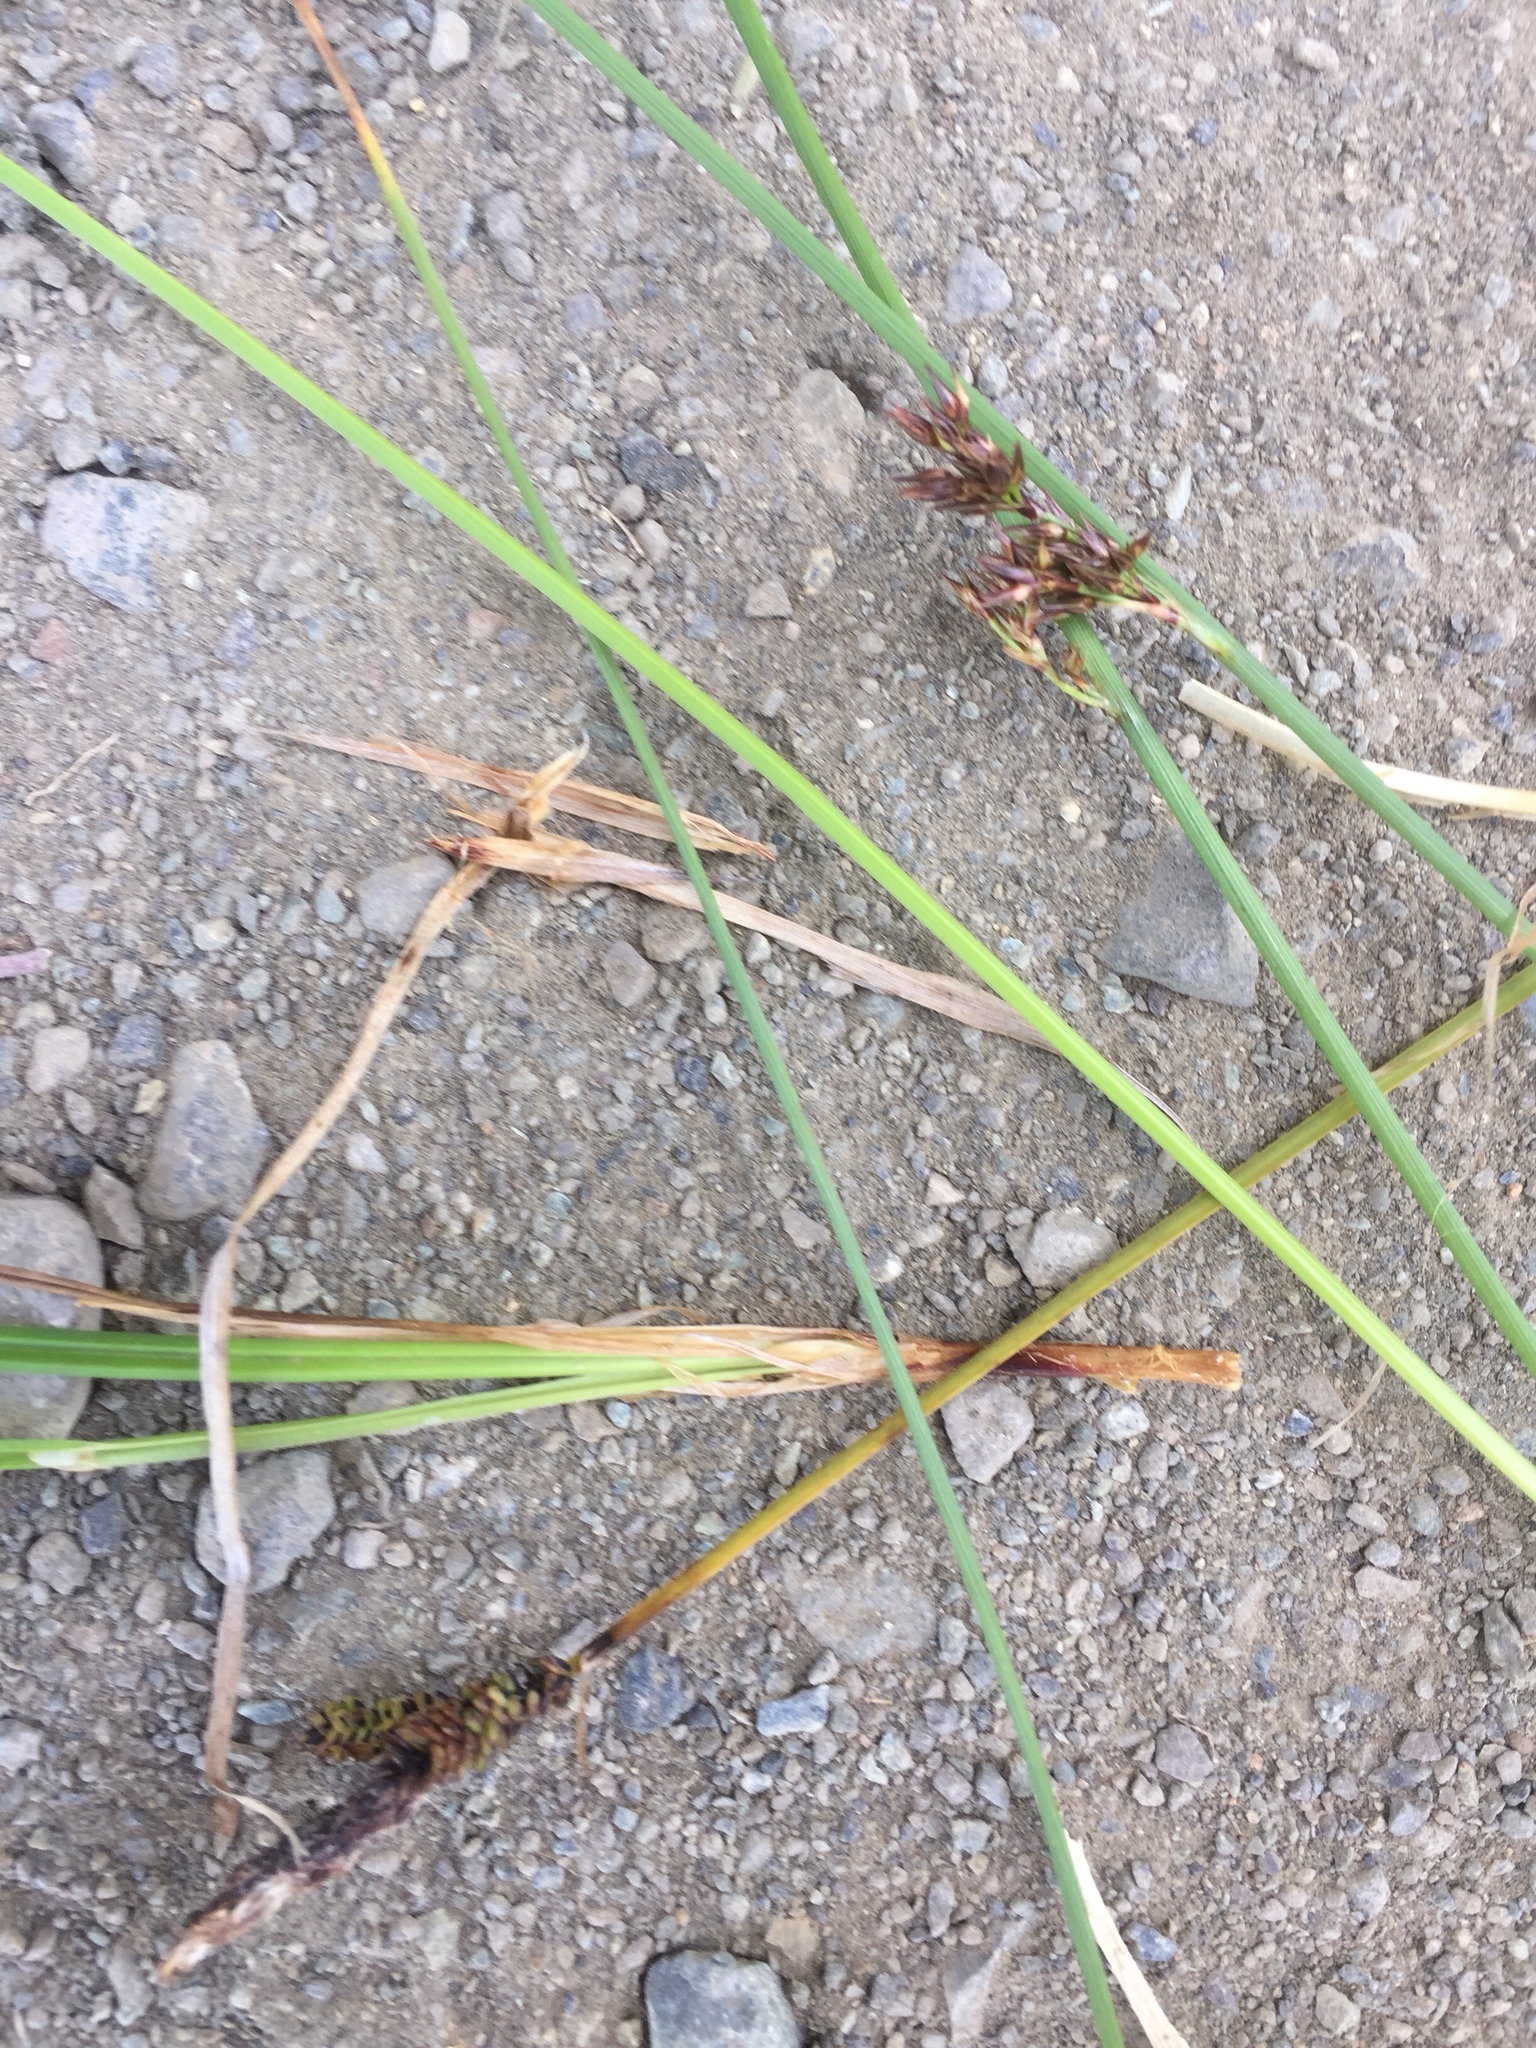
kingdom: Plantae
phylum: Tracheophyta
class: Liliopsida
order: Poales
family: Cyperaceae
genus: Carex
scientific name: Carex cespitosa
